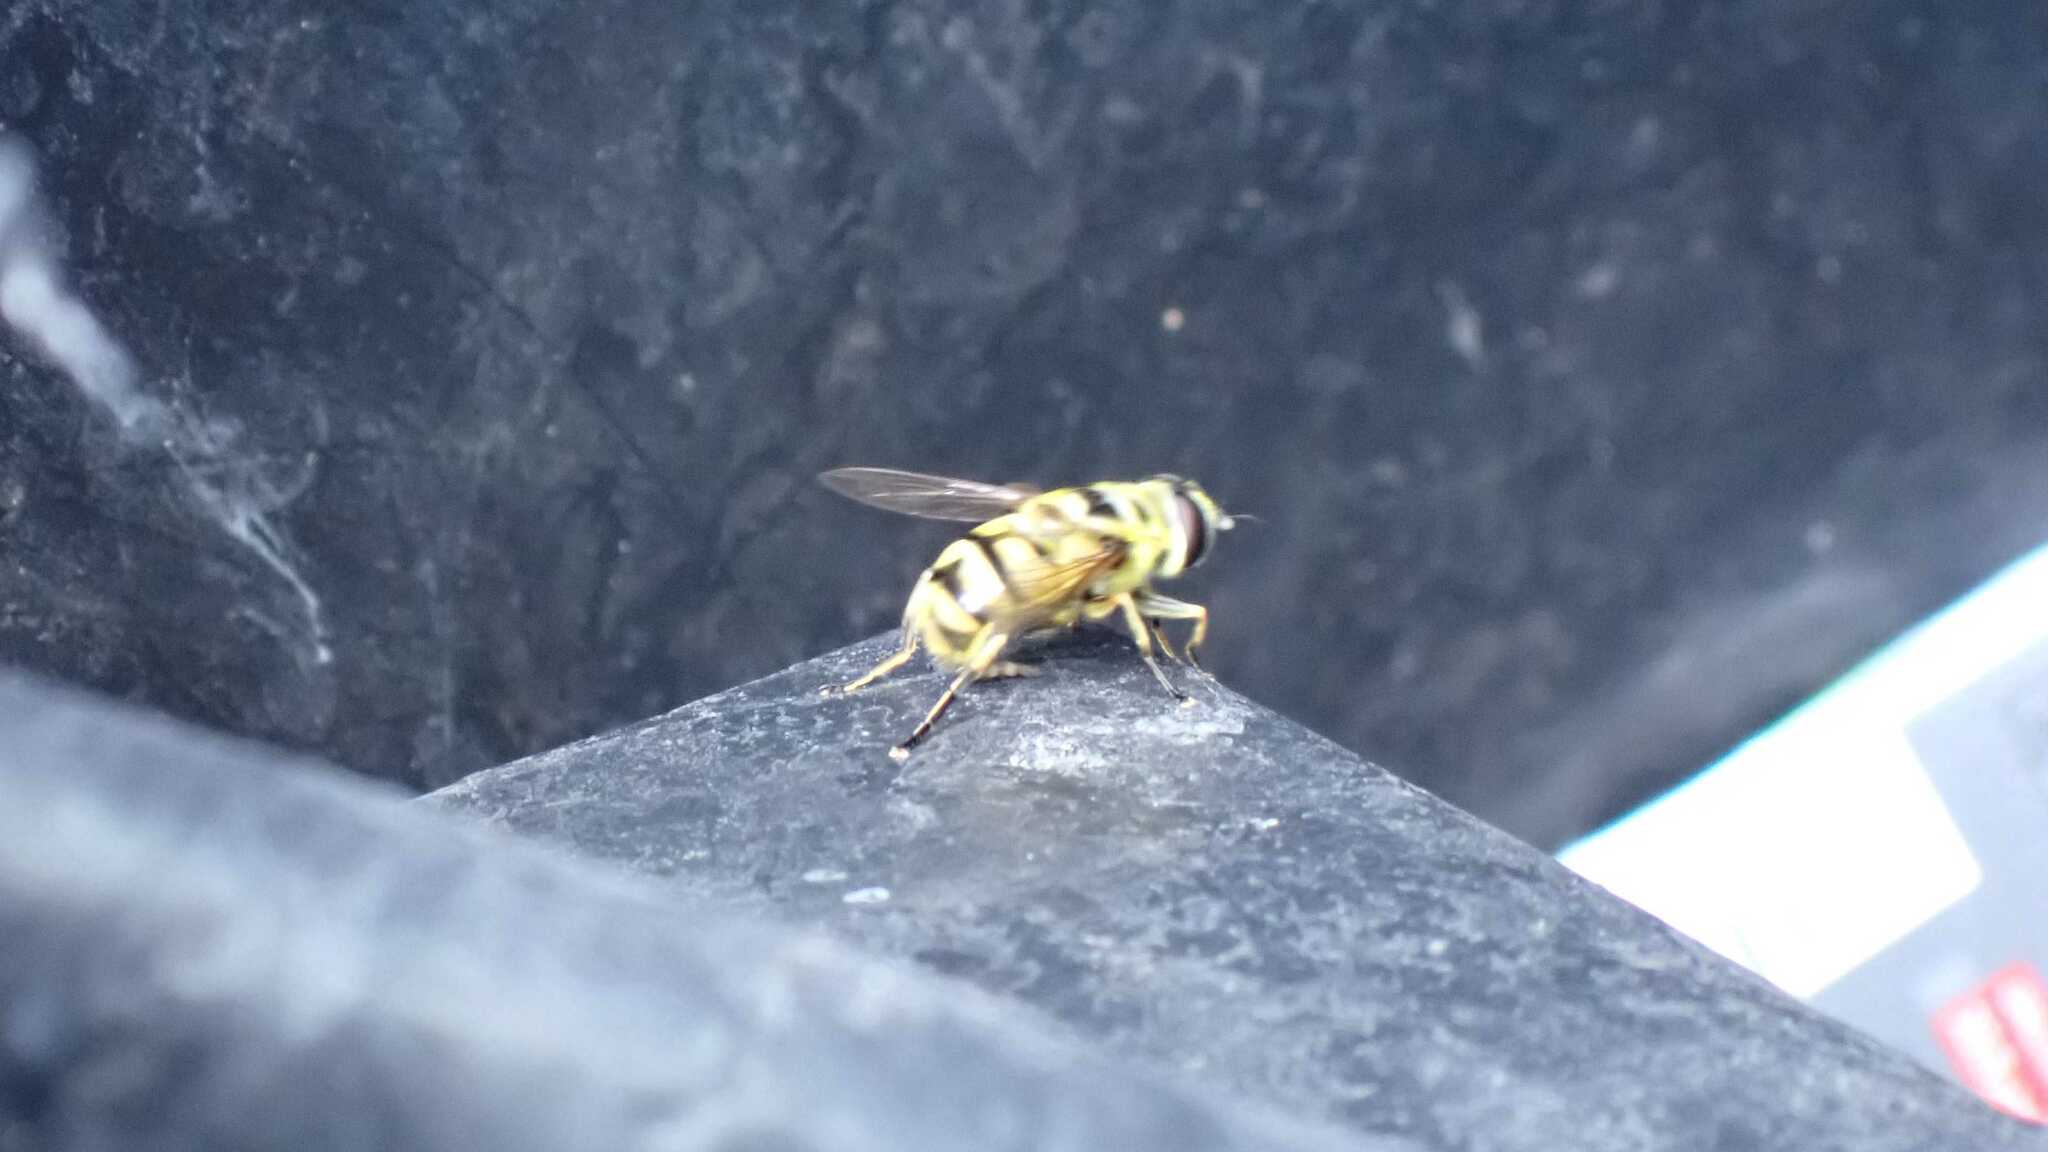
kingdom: Animalia
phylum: Arthropoda
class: Insecta
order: Diptera
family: Syrphidae
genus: Myathropa
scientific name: Myathropa florea
